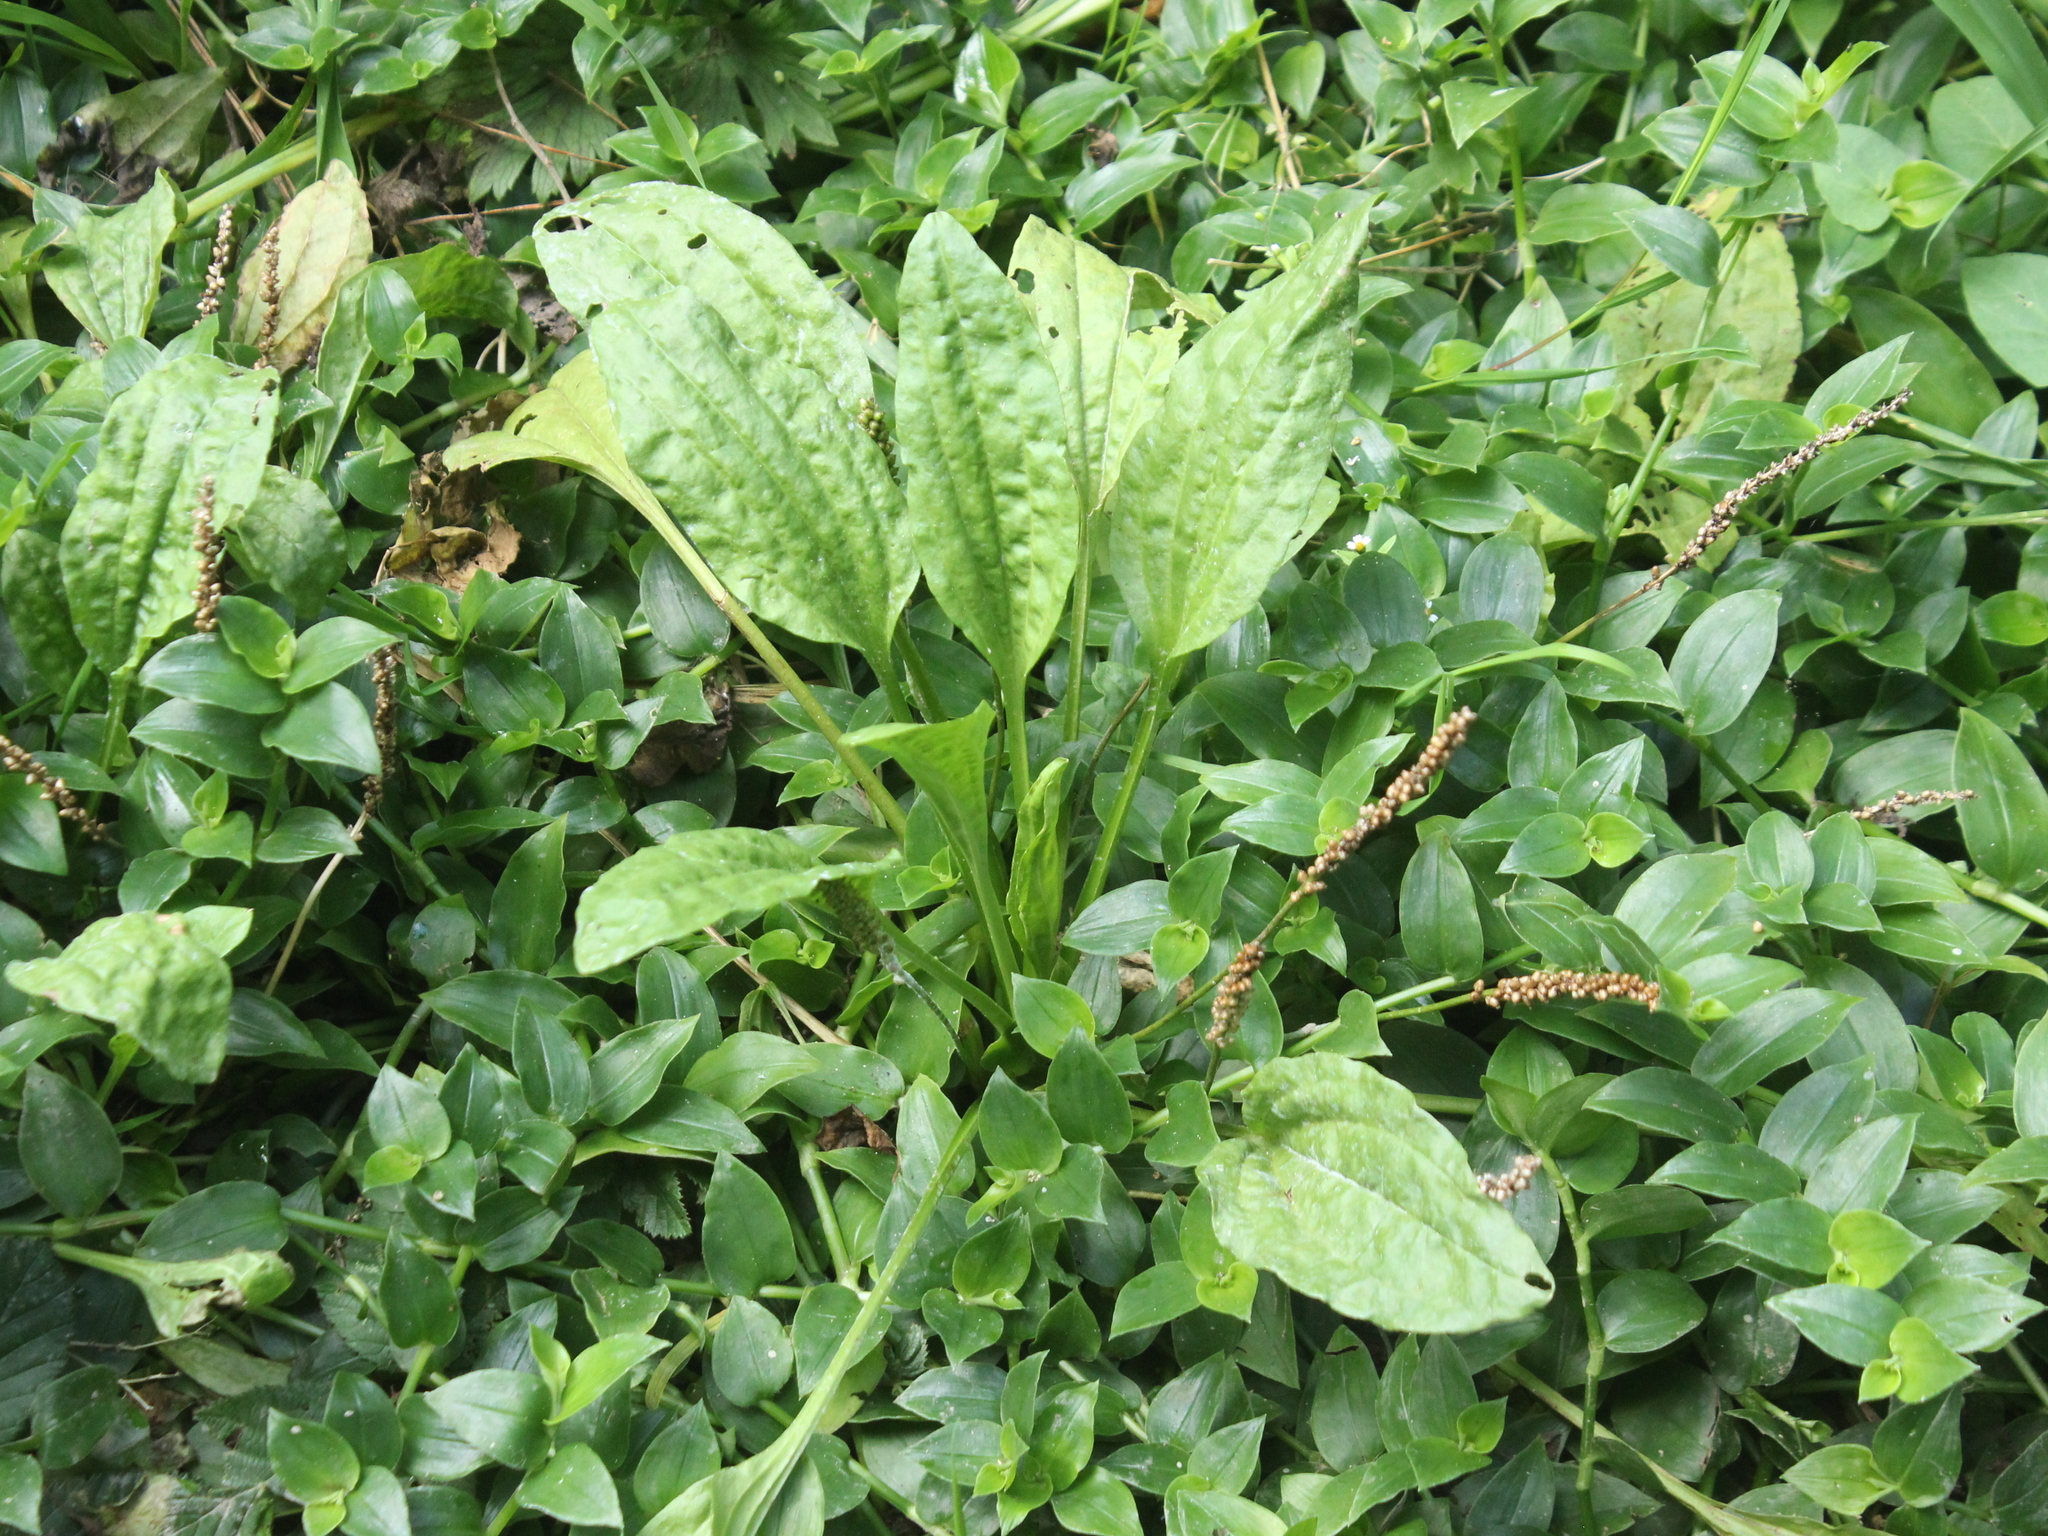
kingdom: Plantae
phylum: Tracheophyta
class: Magnoliopsida
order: Lamiales
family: Plantaginaceae
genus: Plantago
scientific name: Plantago major
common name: Common plantain
